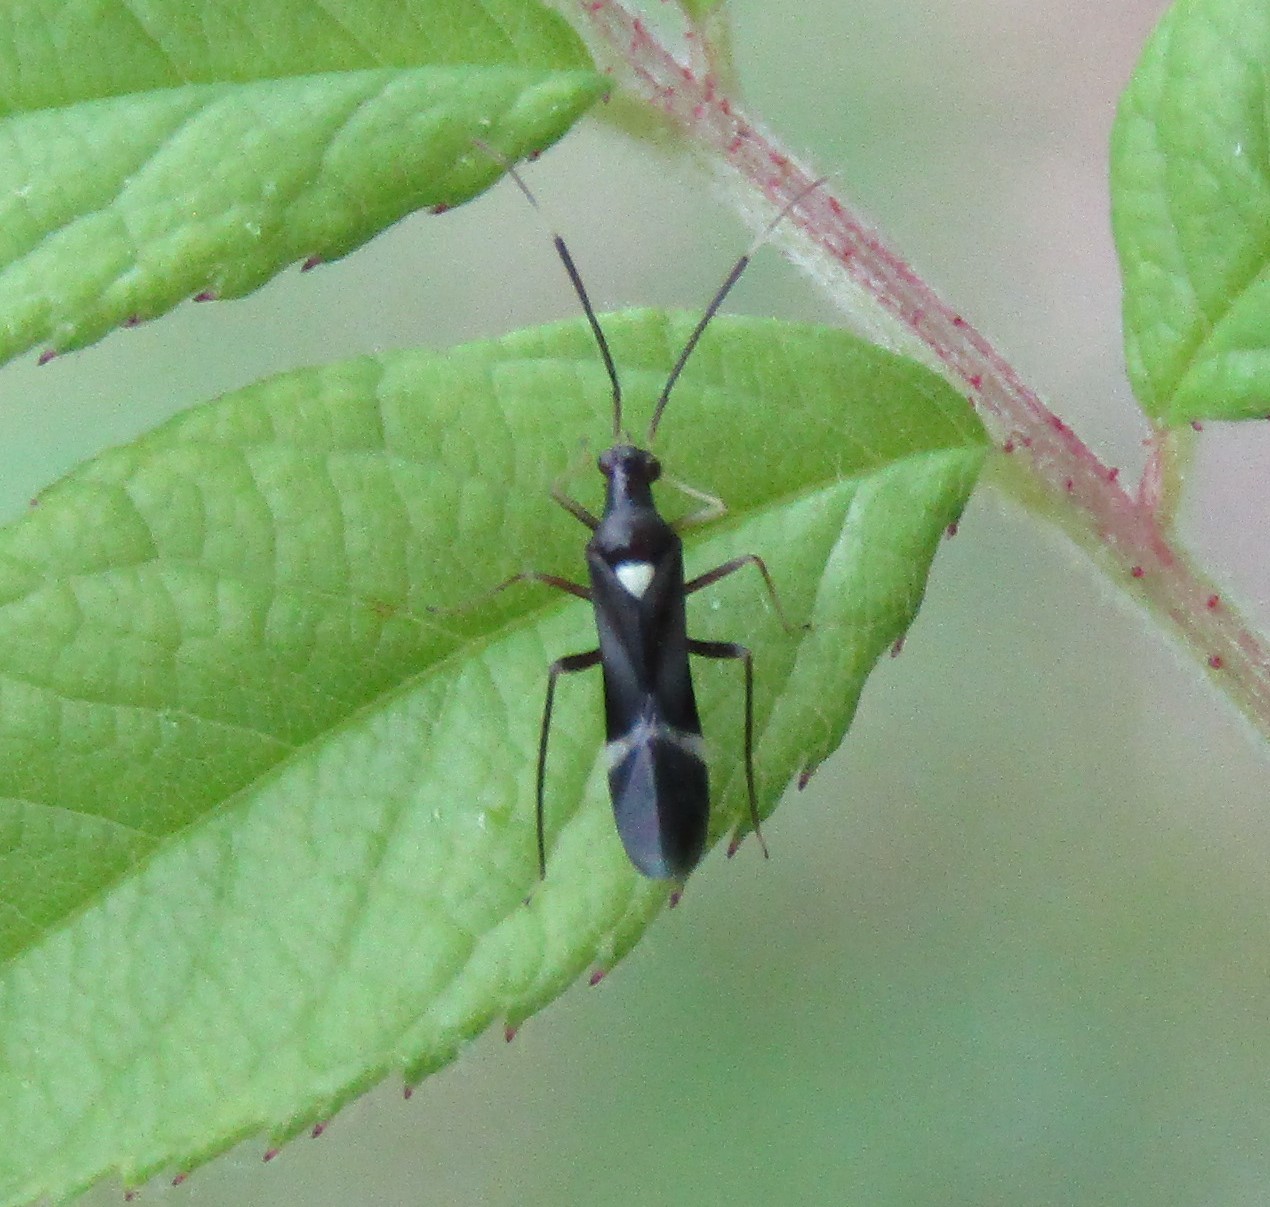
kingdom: Animalia
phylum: Arthropoda
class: Insecta
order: Hemiptera
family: Miridae
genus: Pseudoxenetus
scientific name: Pseudoxenetus regalis
